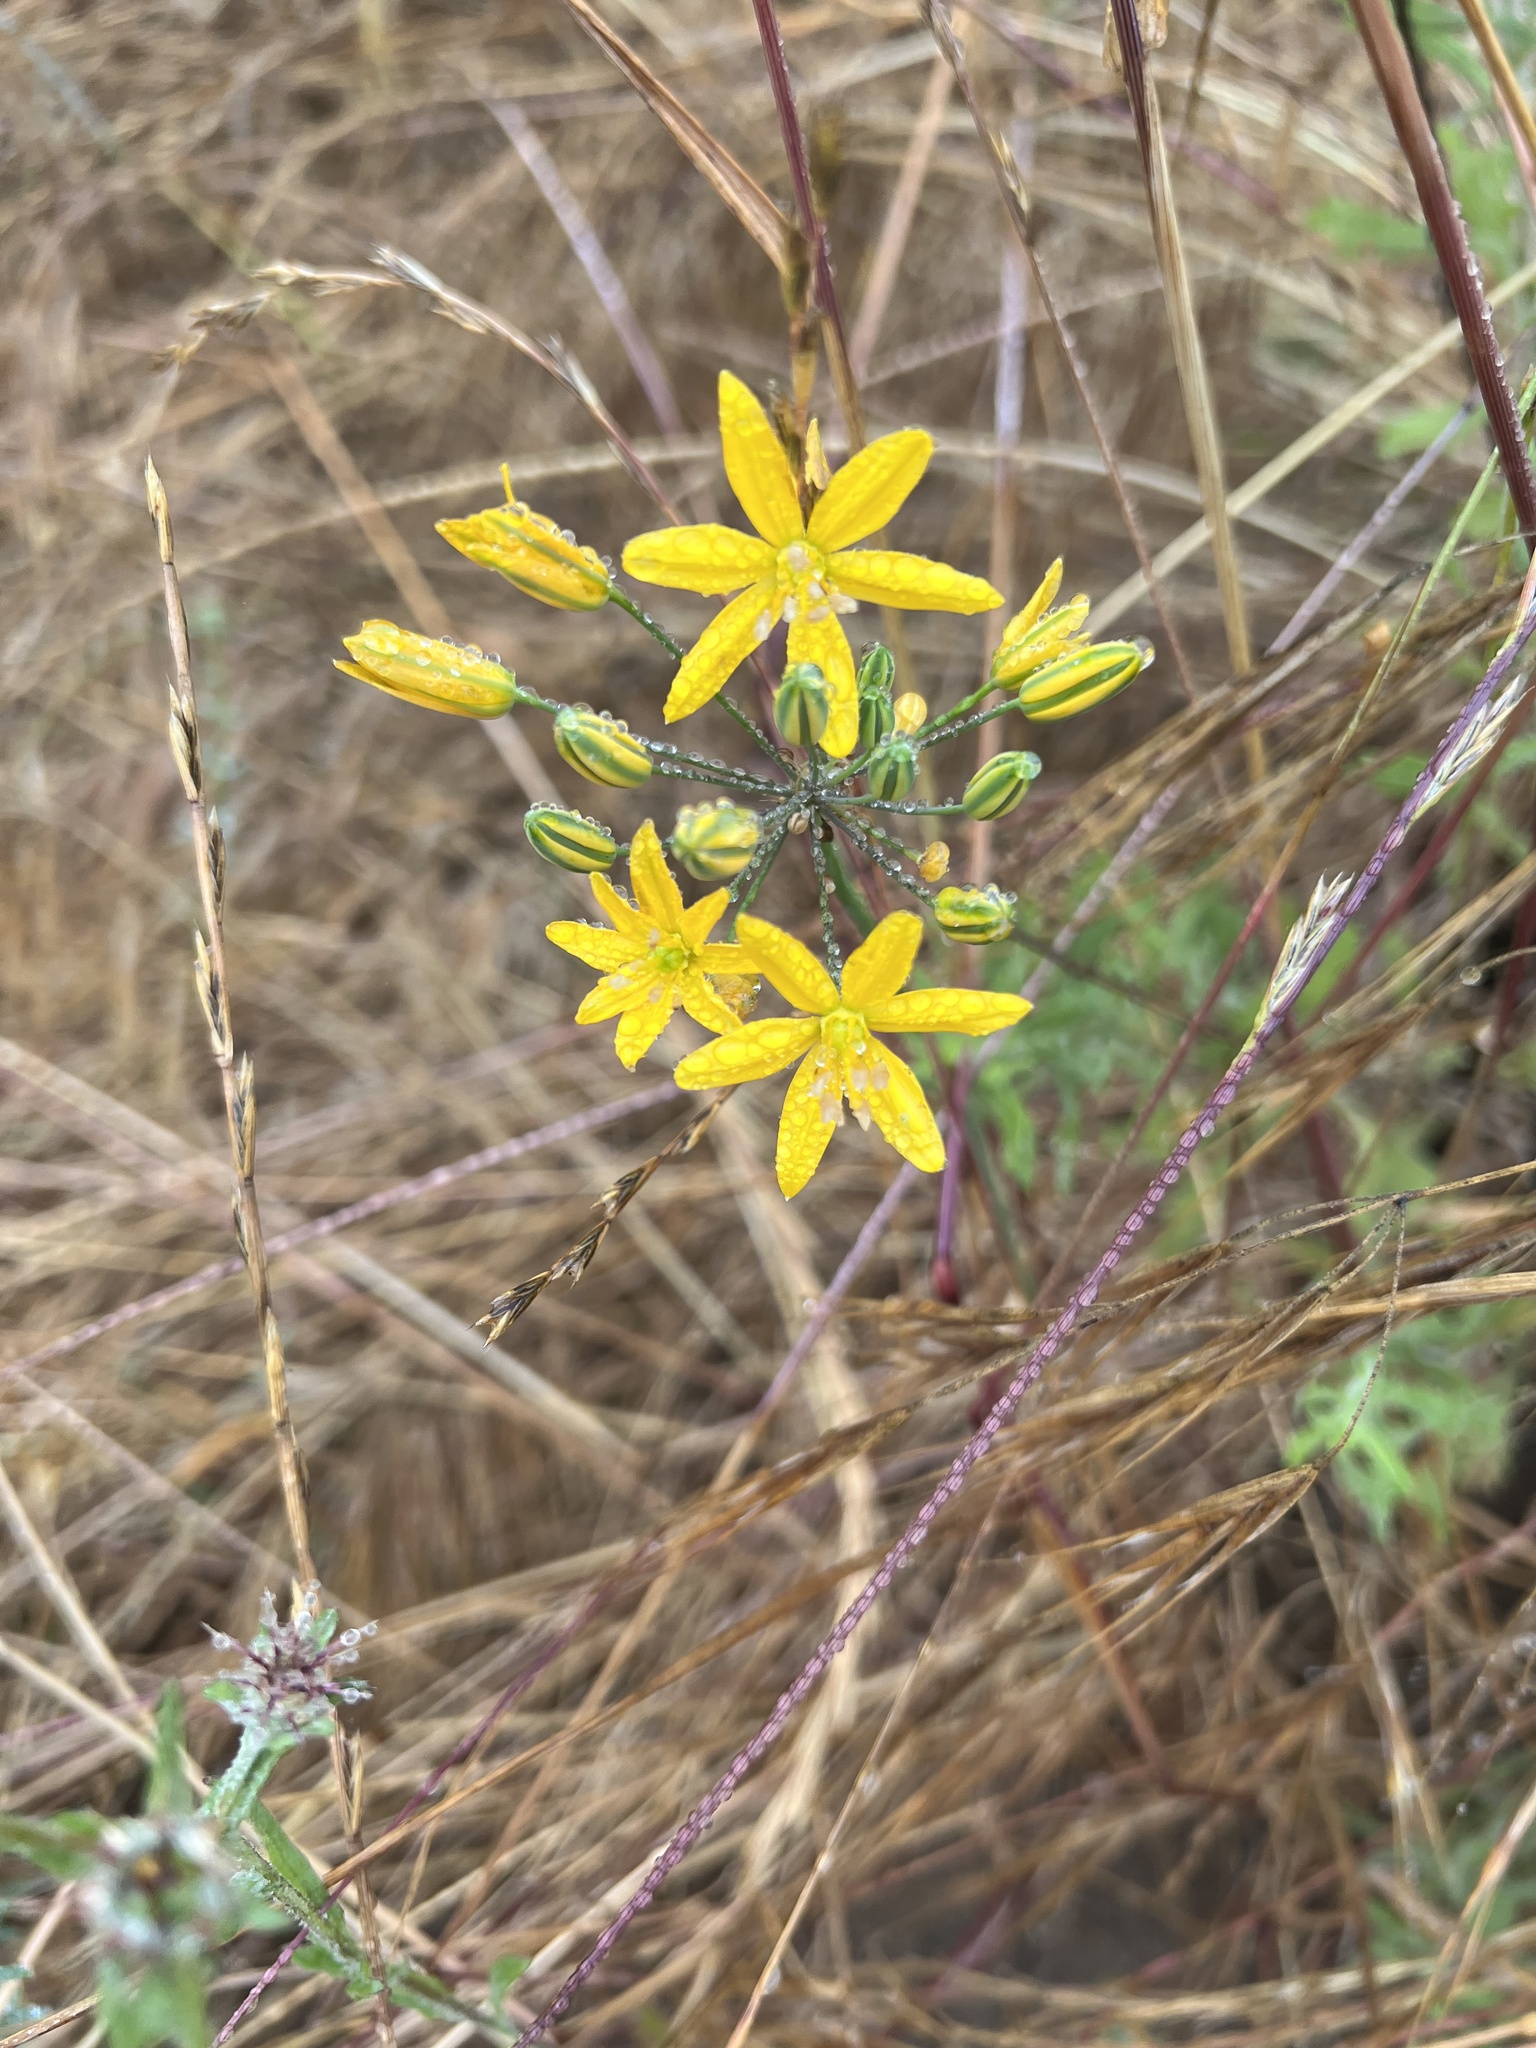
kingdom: Plantae
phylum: Tracheophyta
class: Liliopsida
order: Asparagales
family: Asparagaceae
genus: Bloomeria
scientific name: Bloomeria crocea
